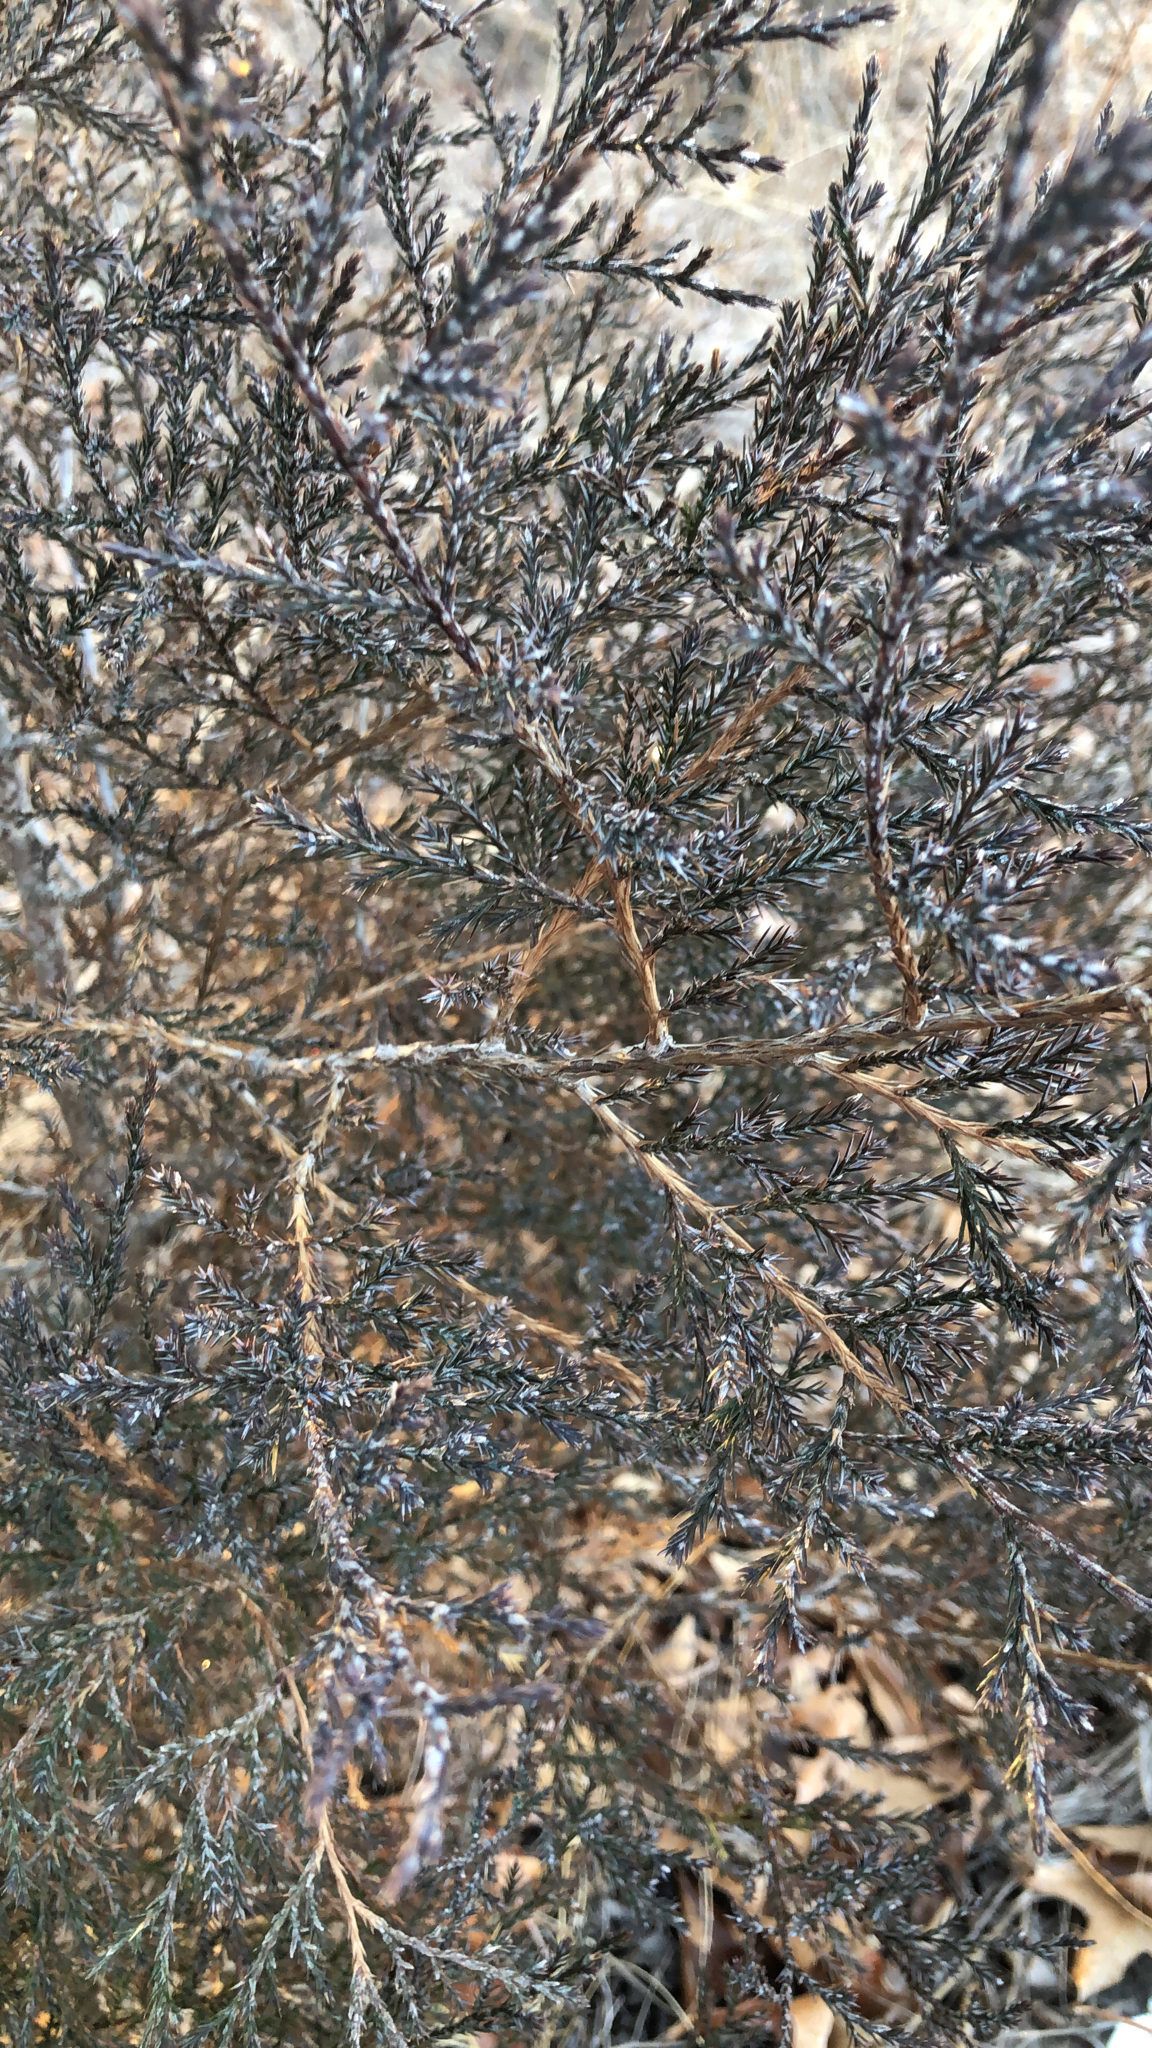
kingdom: Plantae
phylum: Tracheophyta
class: Pinopsida
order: Pinales
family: Cupressaceae
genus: Juniperus
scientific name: Juniperus virginiana
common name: Red juniper
